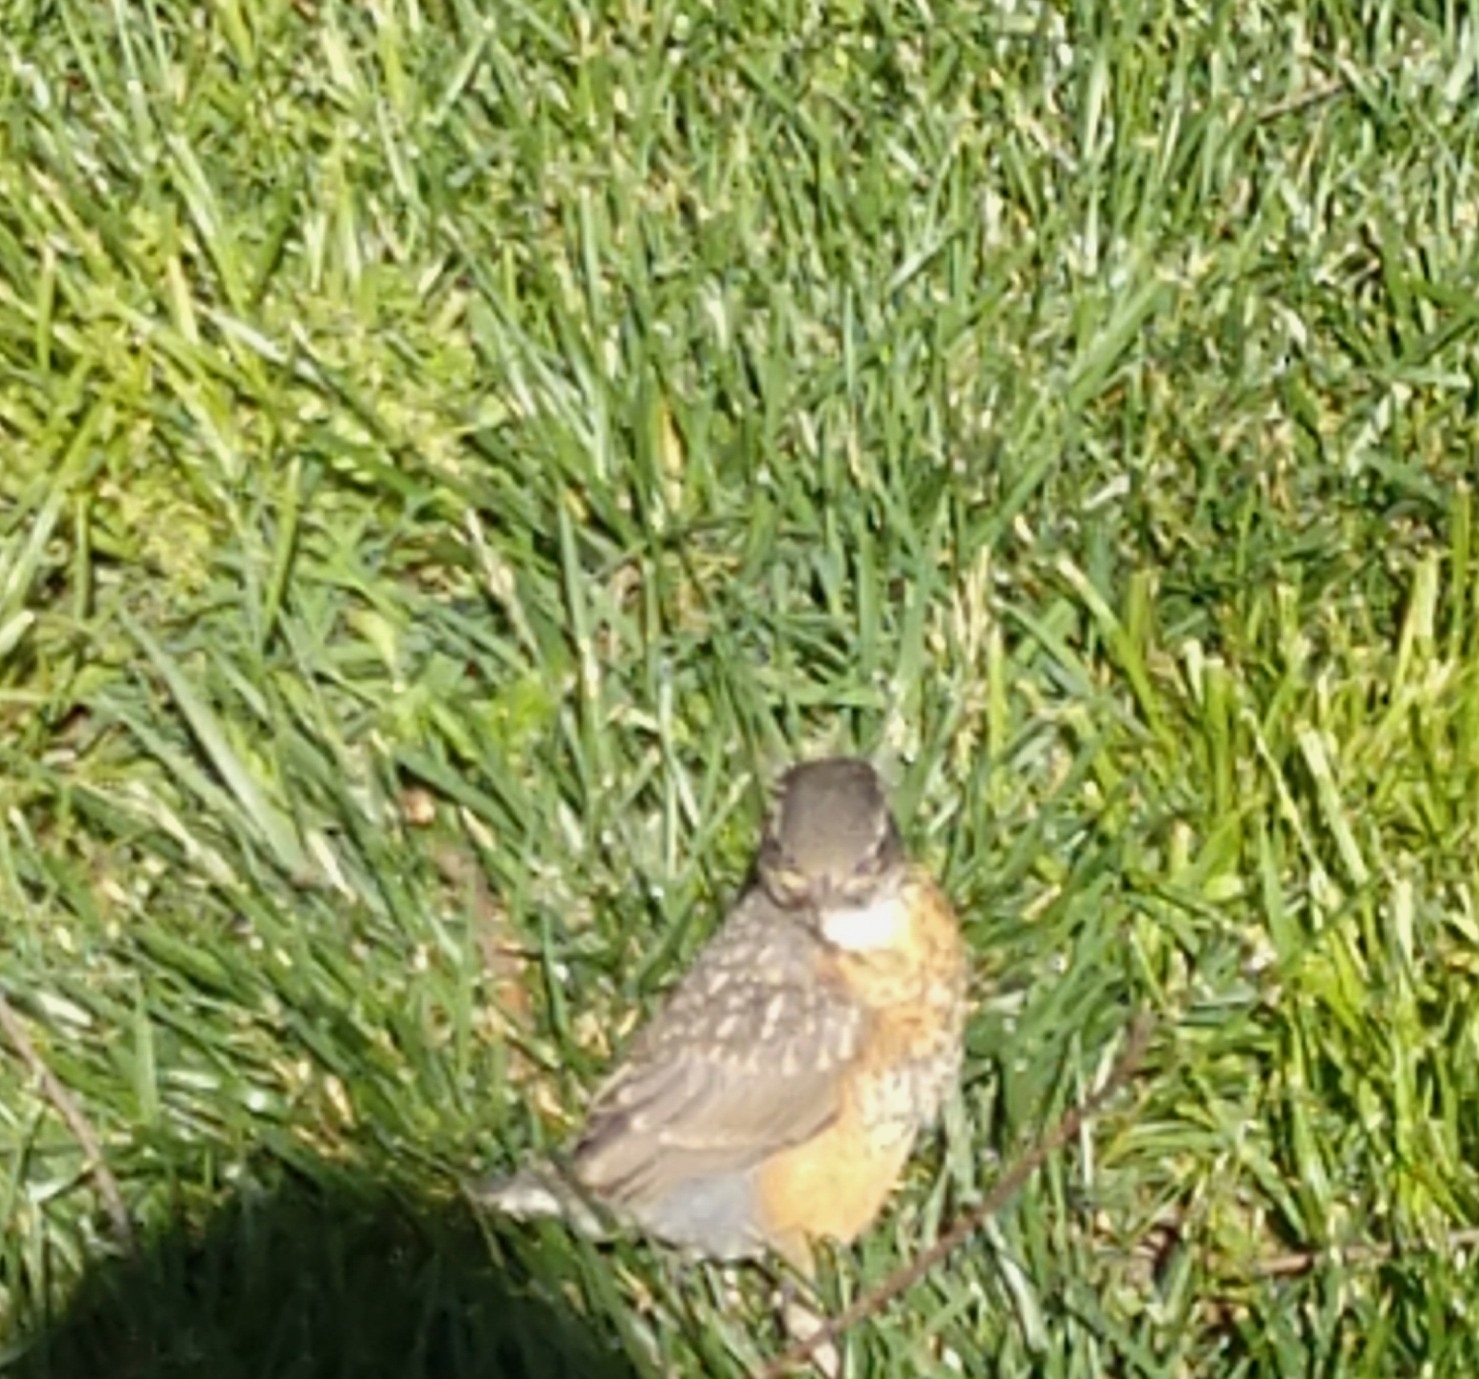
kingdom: Animalia
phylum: Chordata
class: Aves
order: Passeriformes
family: Turdidae
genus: Turdus
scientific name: Turdus migratorius
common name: American robin
